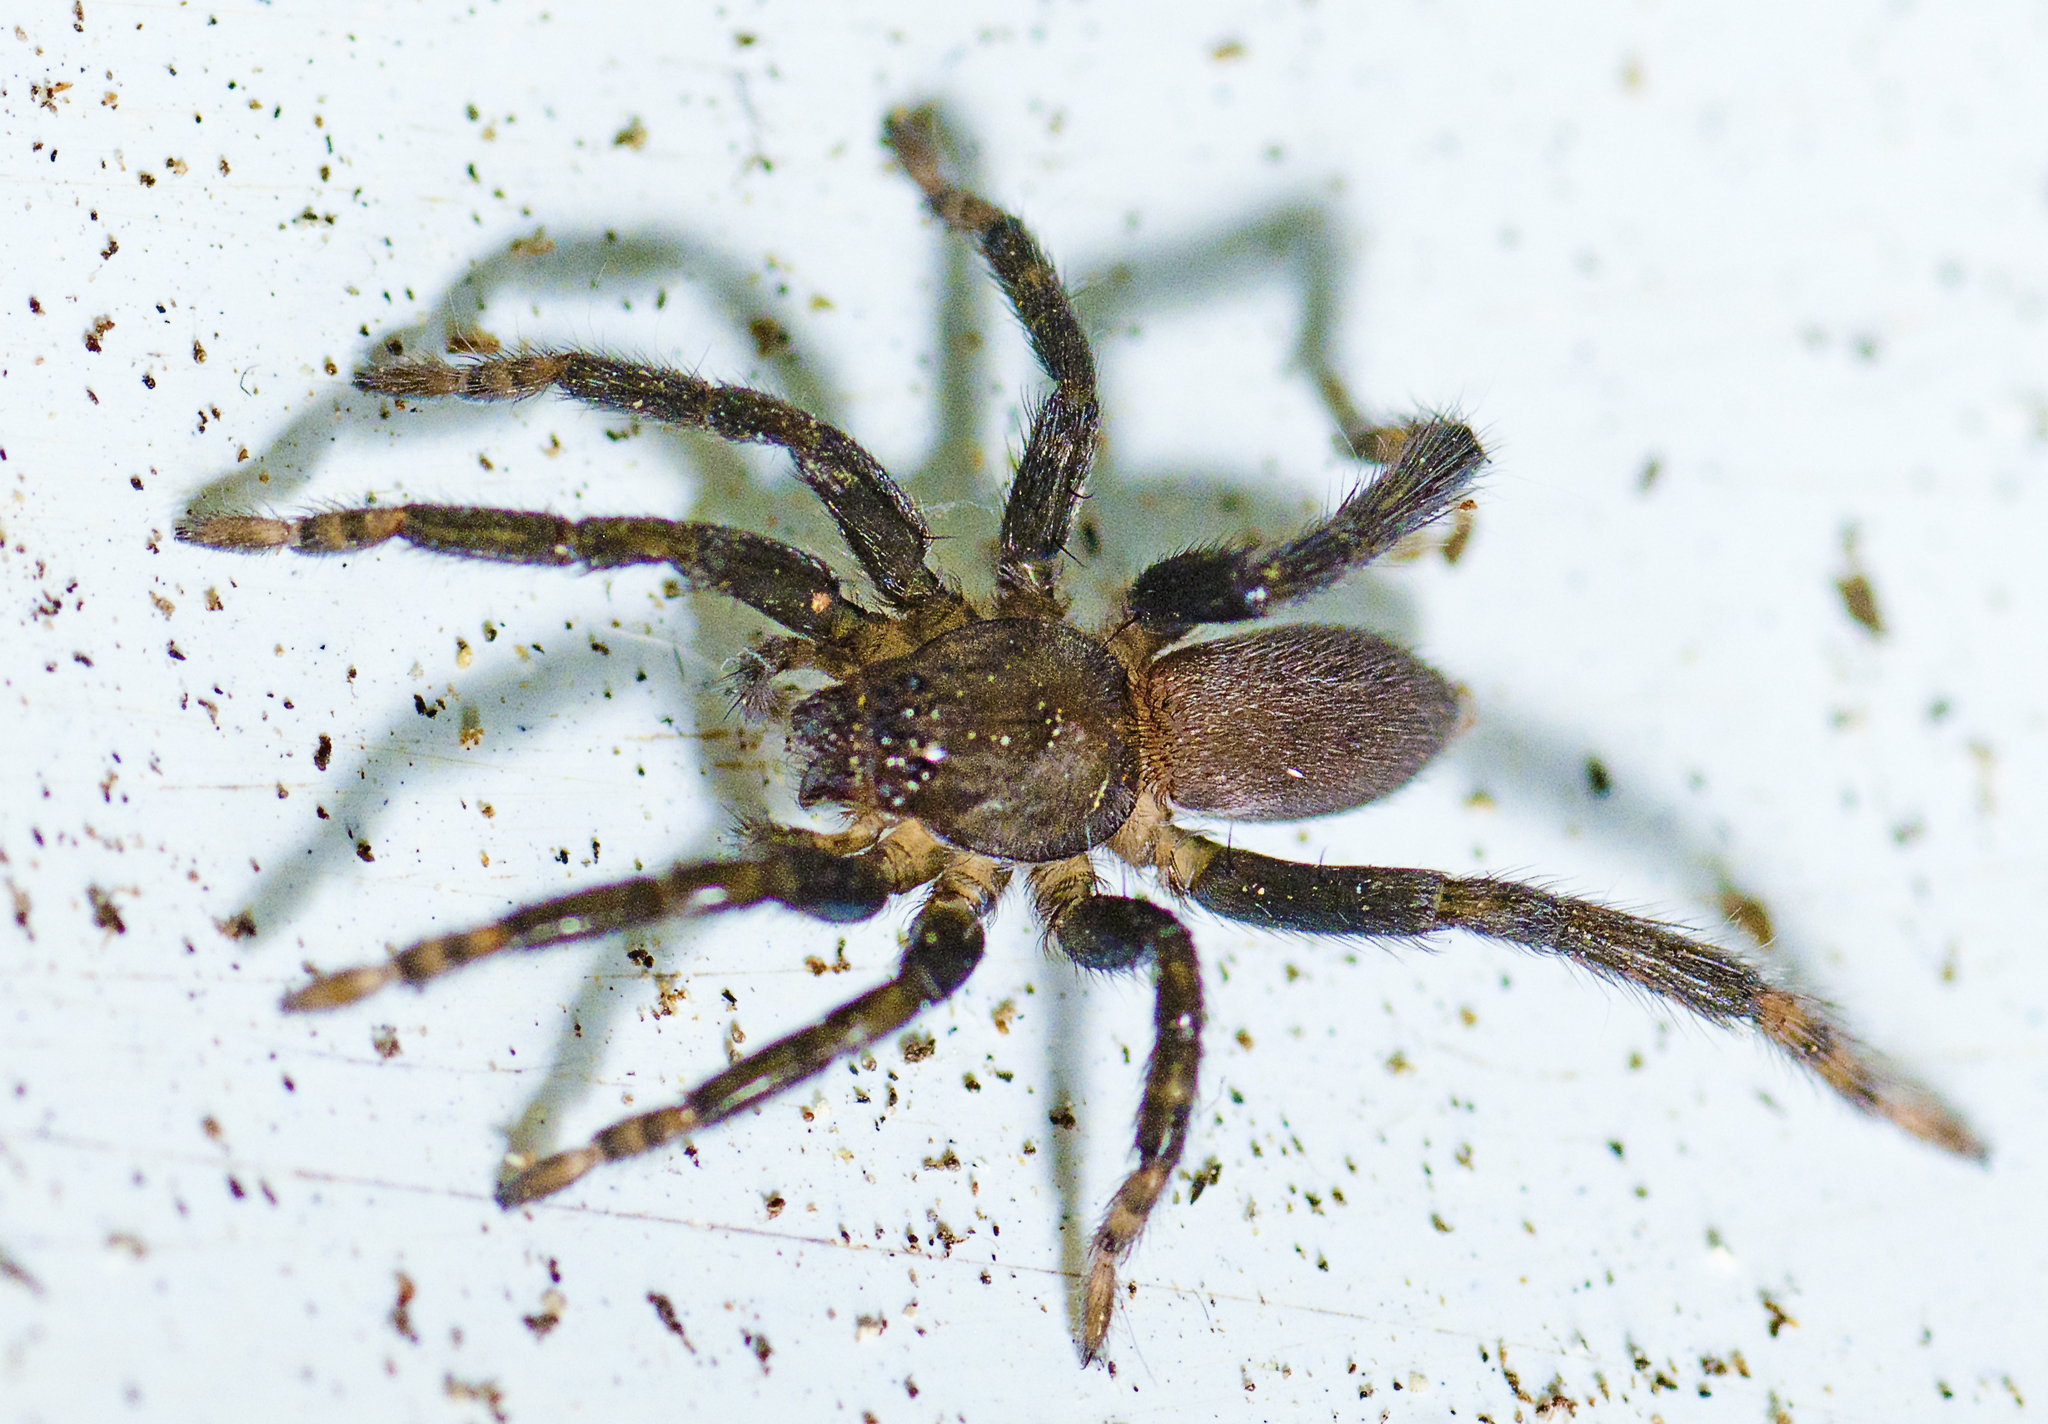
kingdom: Animalia
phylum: Arthropoda
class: Arachnida
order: Araneae
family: Miturgidae
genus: Nuliodon
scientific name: Nuliodon fishburni
